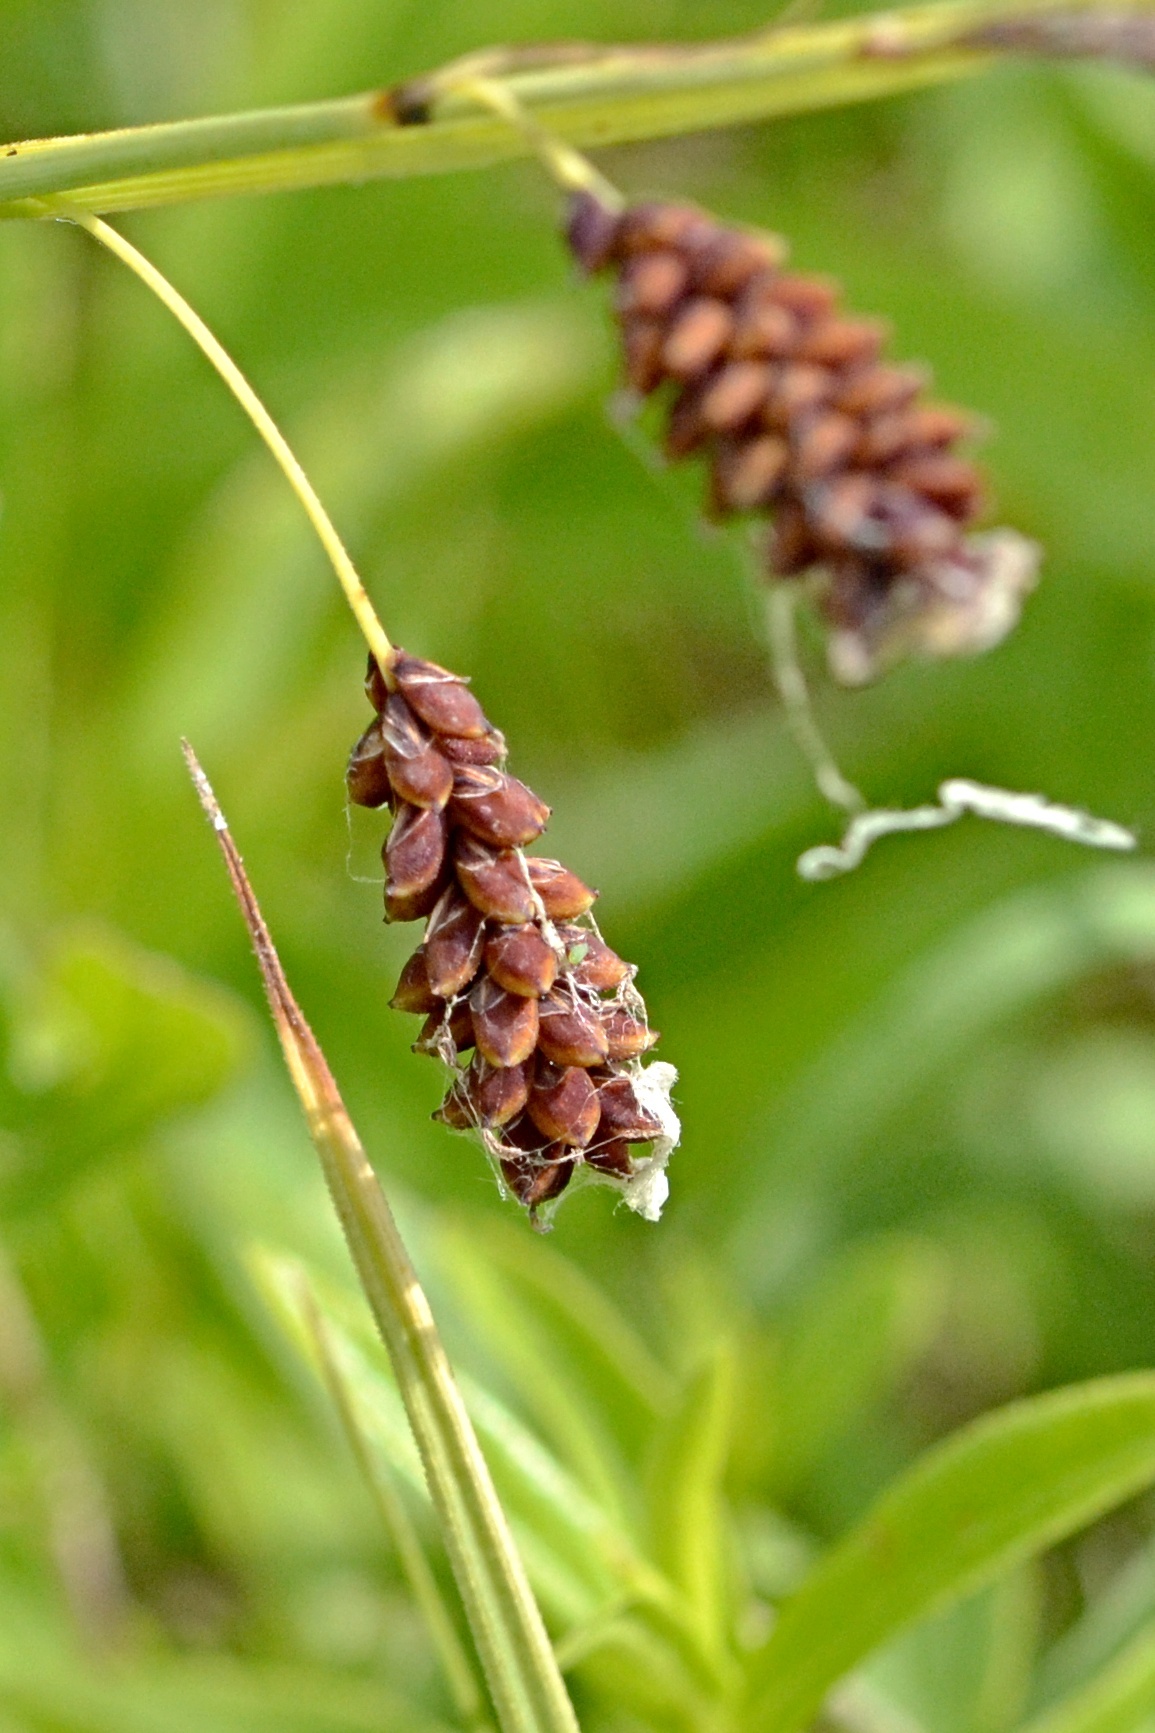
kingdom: Plantae
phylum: Tracheophyta
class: Liliopsida
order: Poales
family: Cyperaceae
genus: Carex
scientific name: Carex flacca
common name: Glaucous sedge
